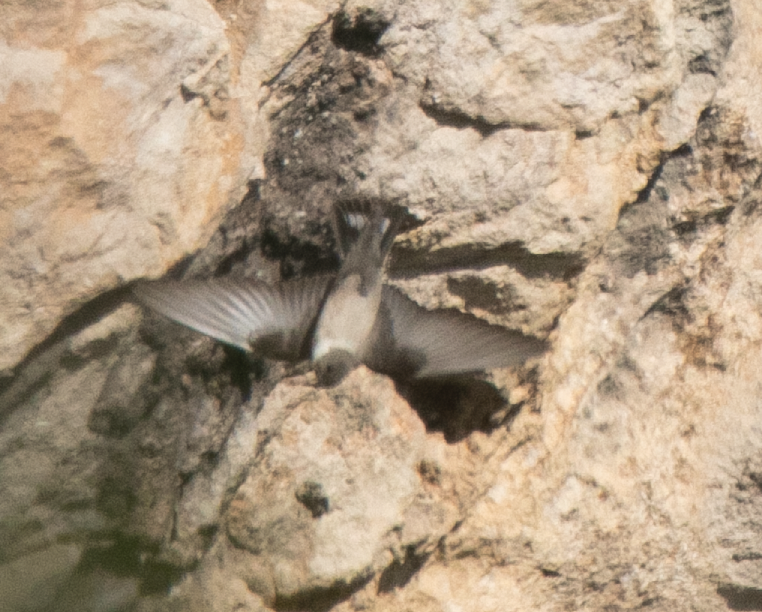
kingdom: Animalia
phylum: Chordata
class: Aves
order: Passeriformes
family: Hirundinidae
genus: Ptyonoprogne
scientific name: Ptyonoprogne rupestris
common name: Eurasian crag martin
